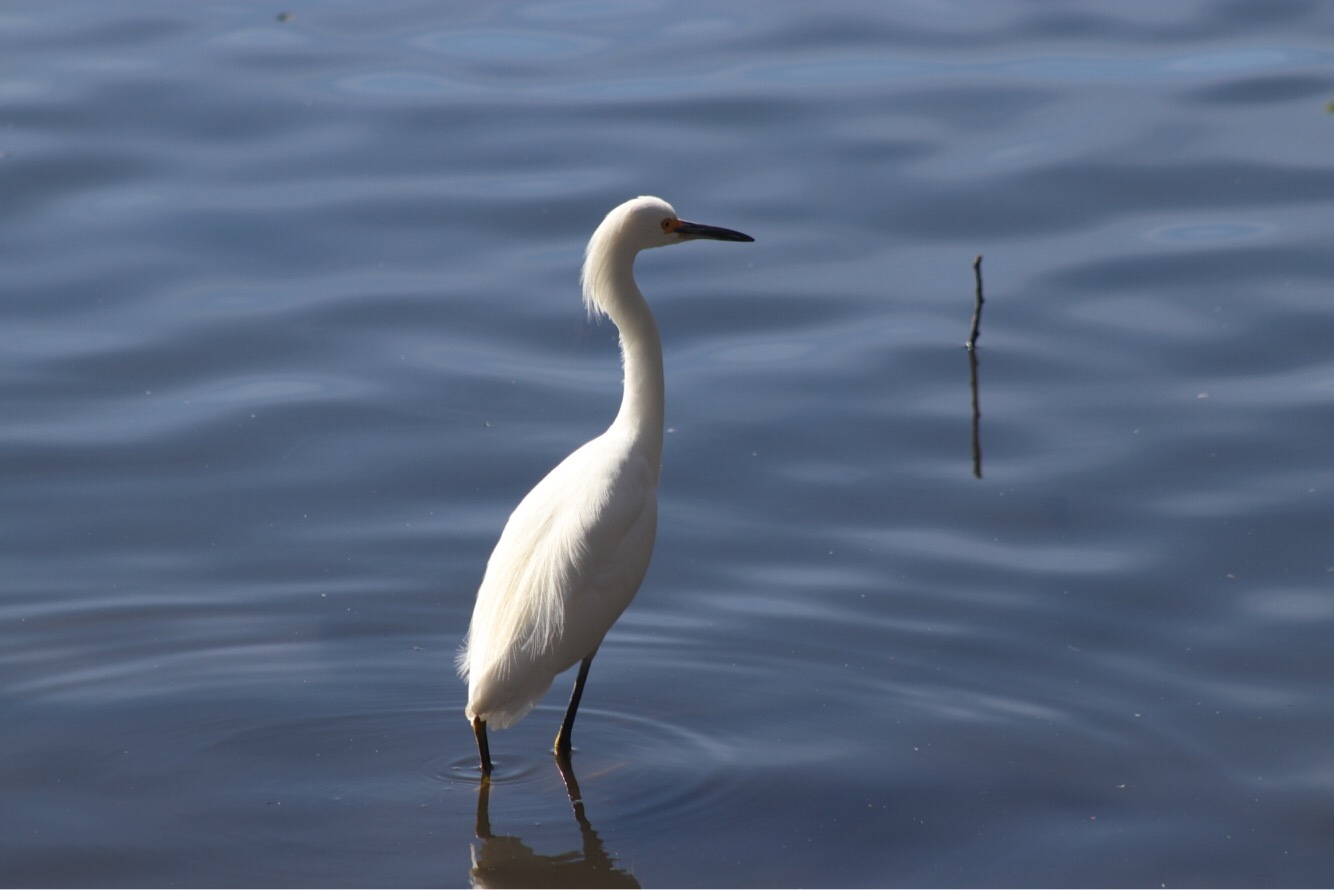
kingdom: Animalia
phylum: Chordata
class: Aves
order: Pelecaniformes
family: Ardeidae
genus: Egretta
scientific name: Egretta thula
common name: Snowy egret
